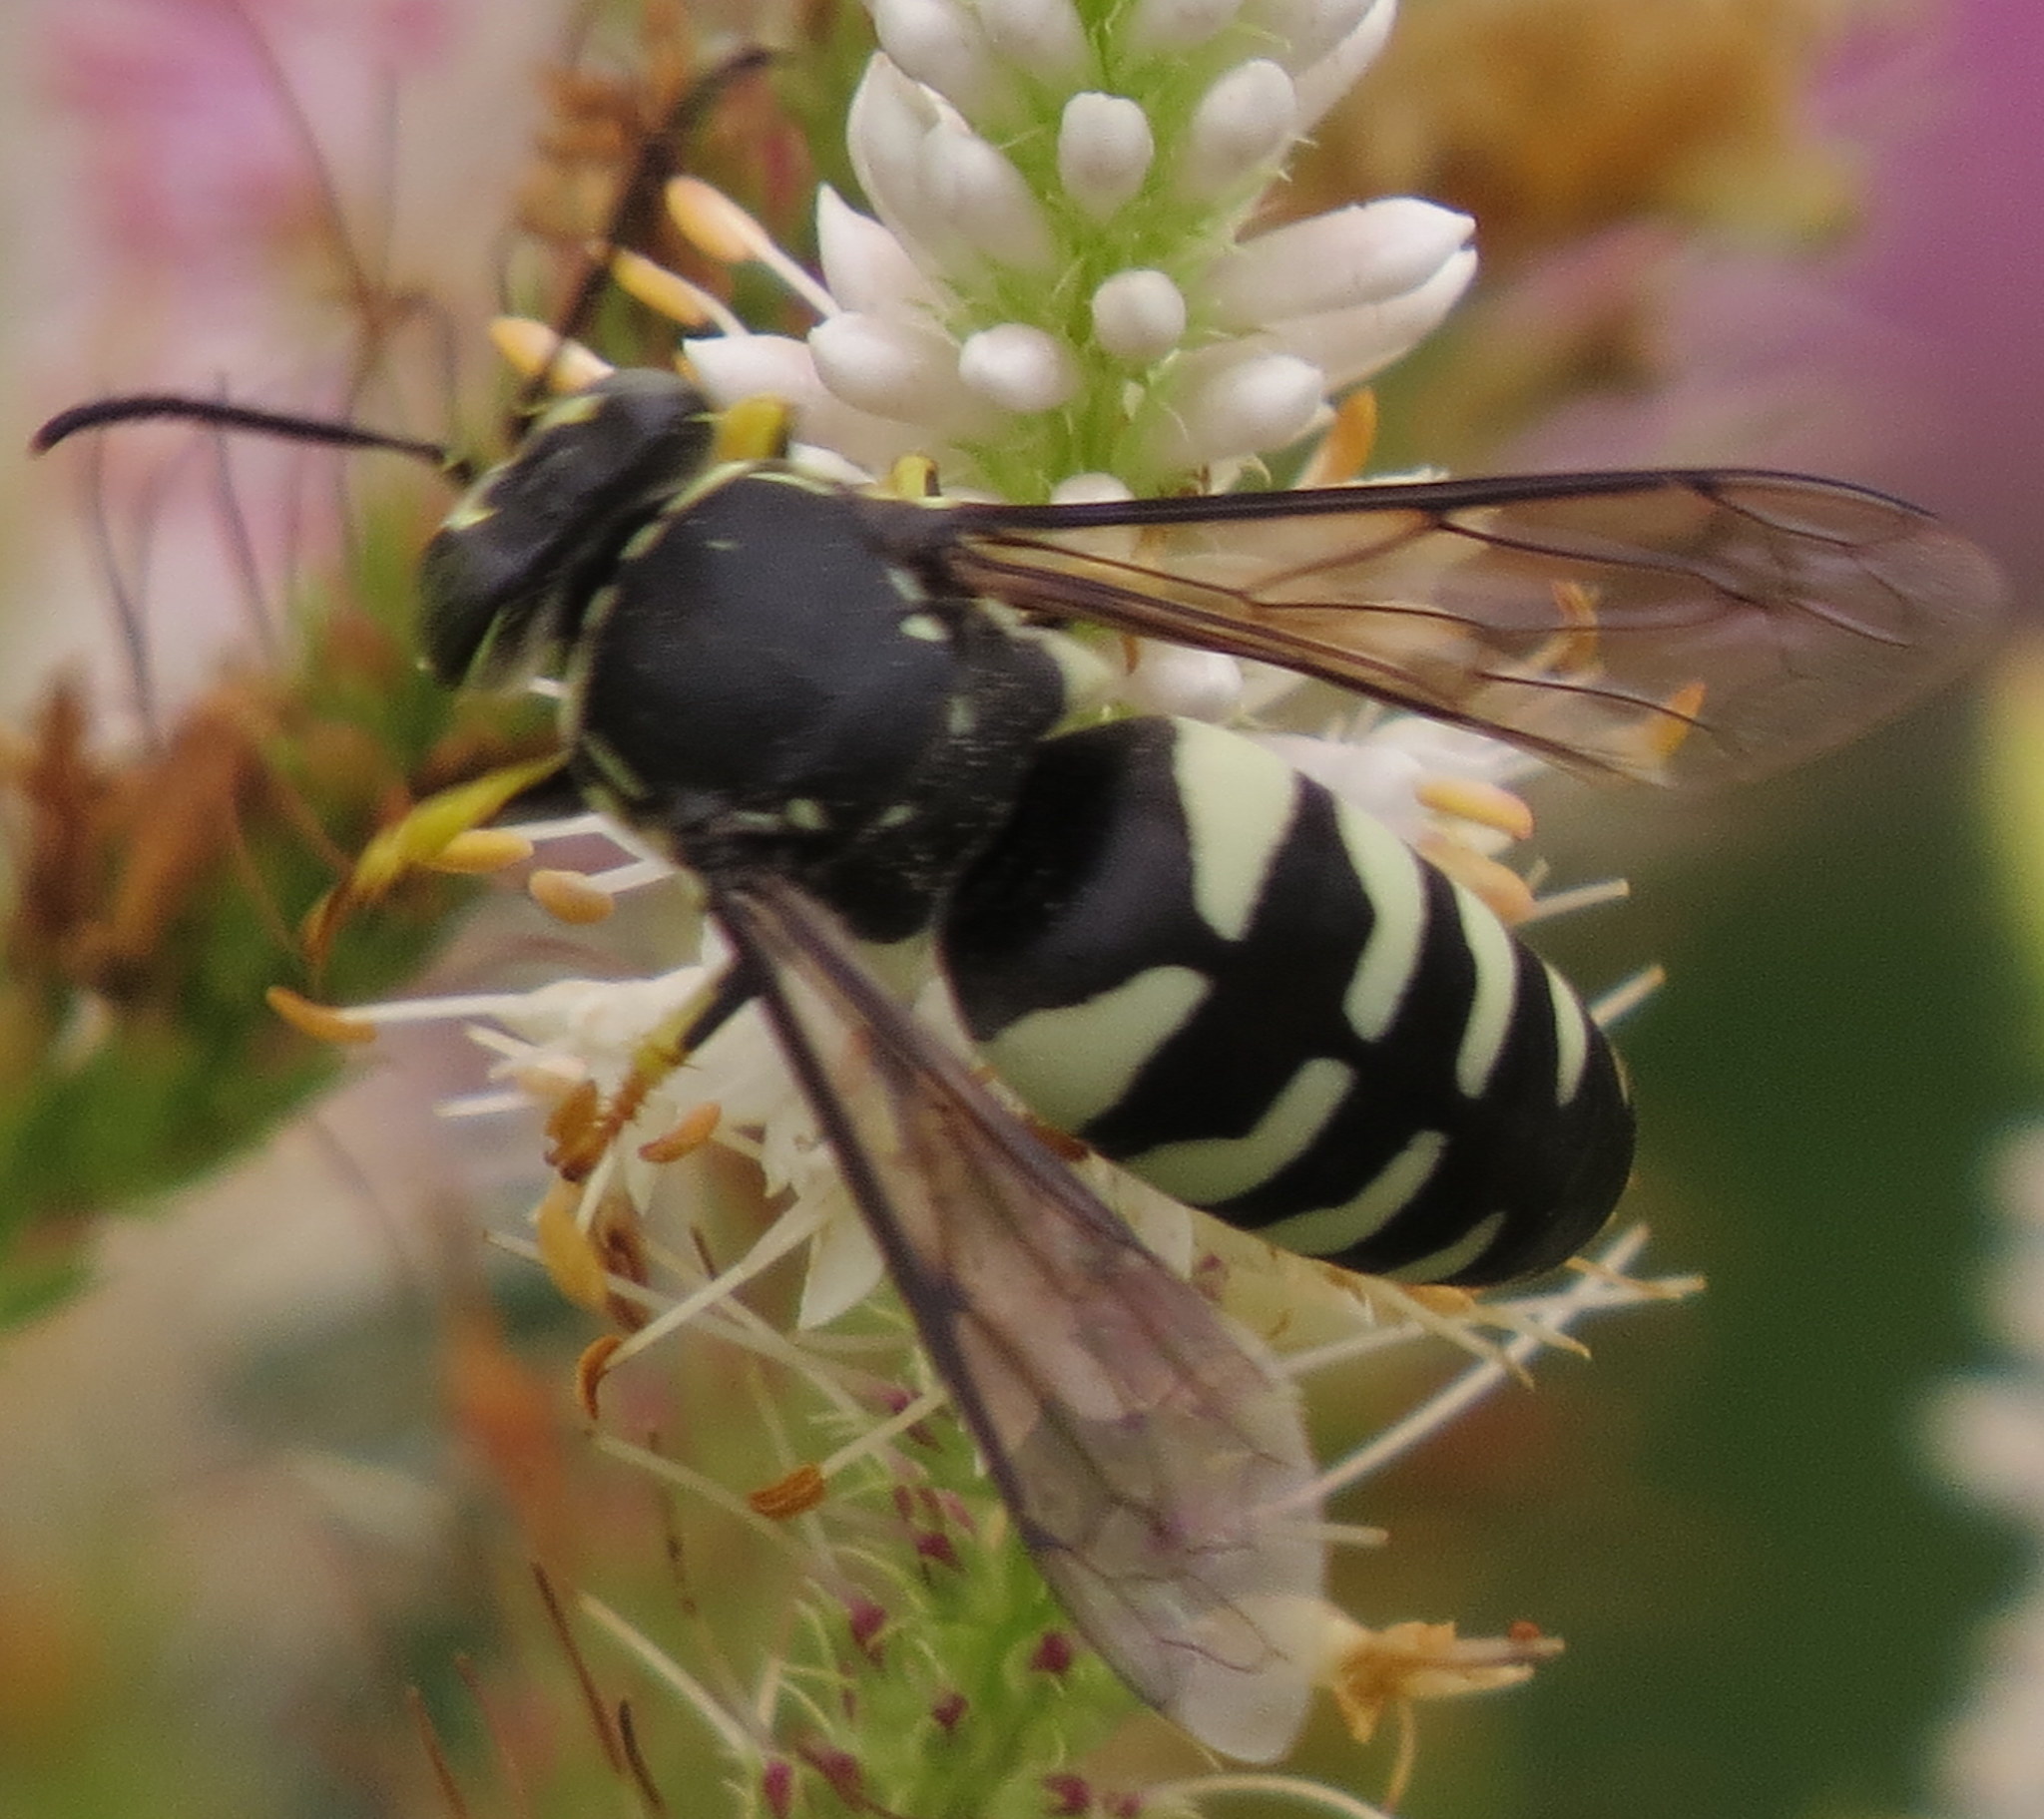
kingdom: Animalia
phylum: Arthropoda
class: Insecta
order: Hymenoptera
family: Crabronidae
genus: Bicyrtes
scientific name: Bicyrtes quadrifasciatus
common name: Four-banded stink bug hunter wasp
